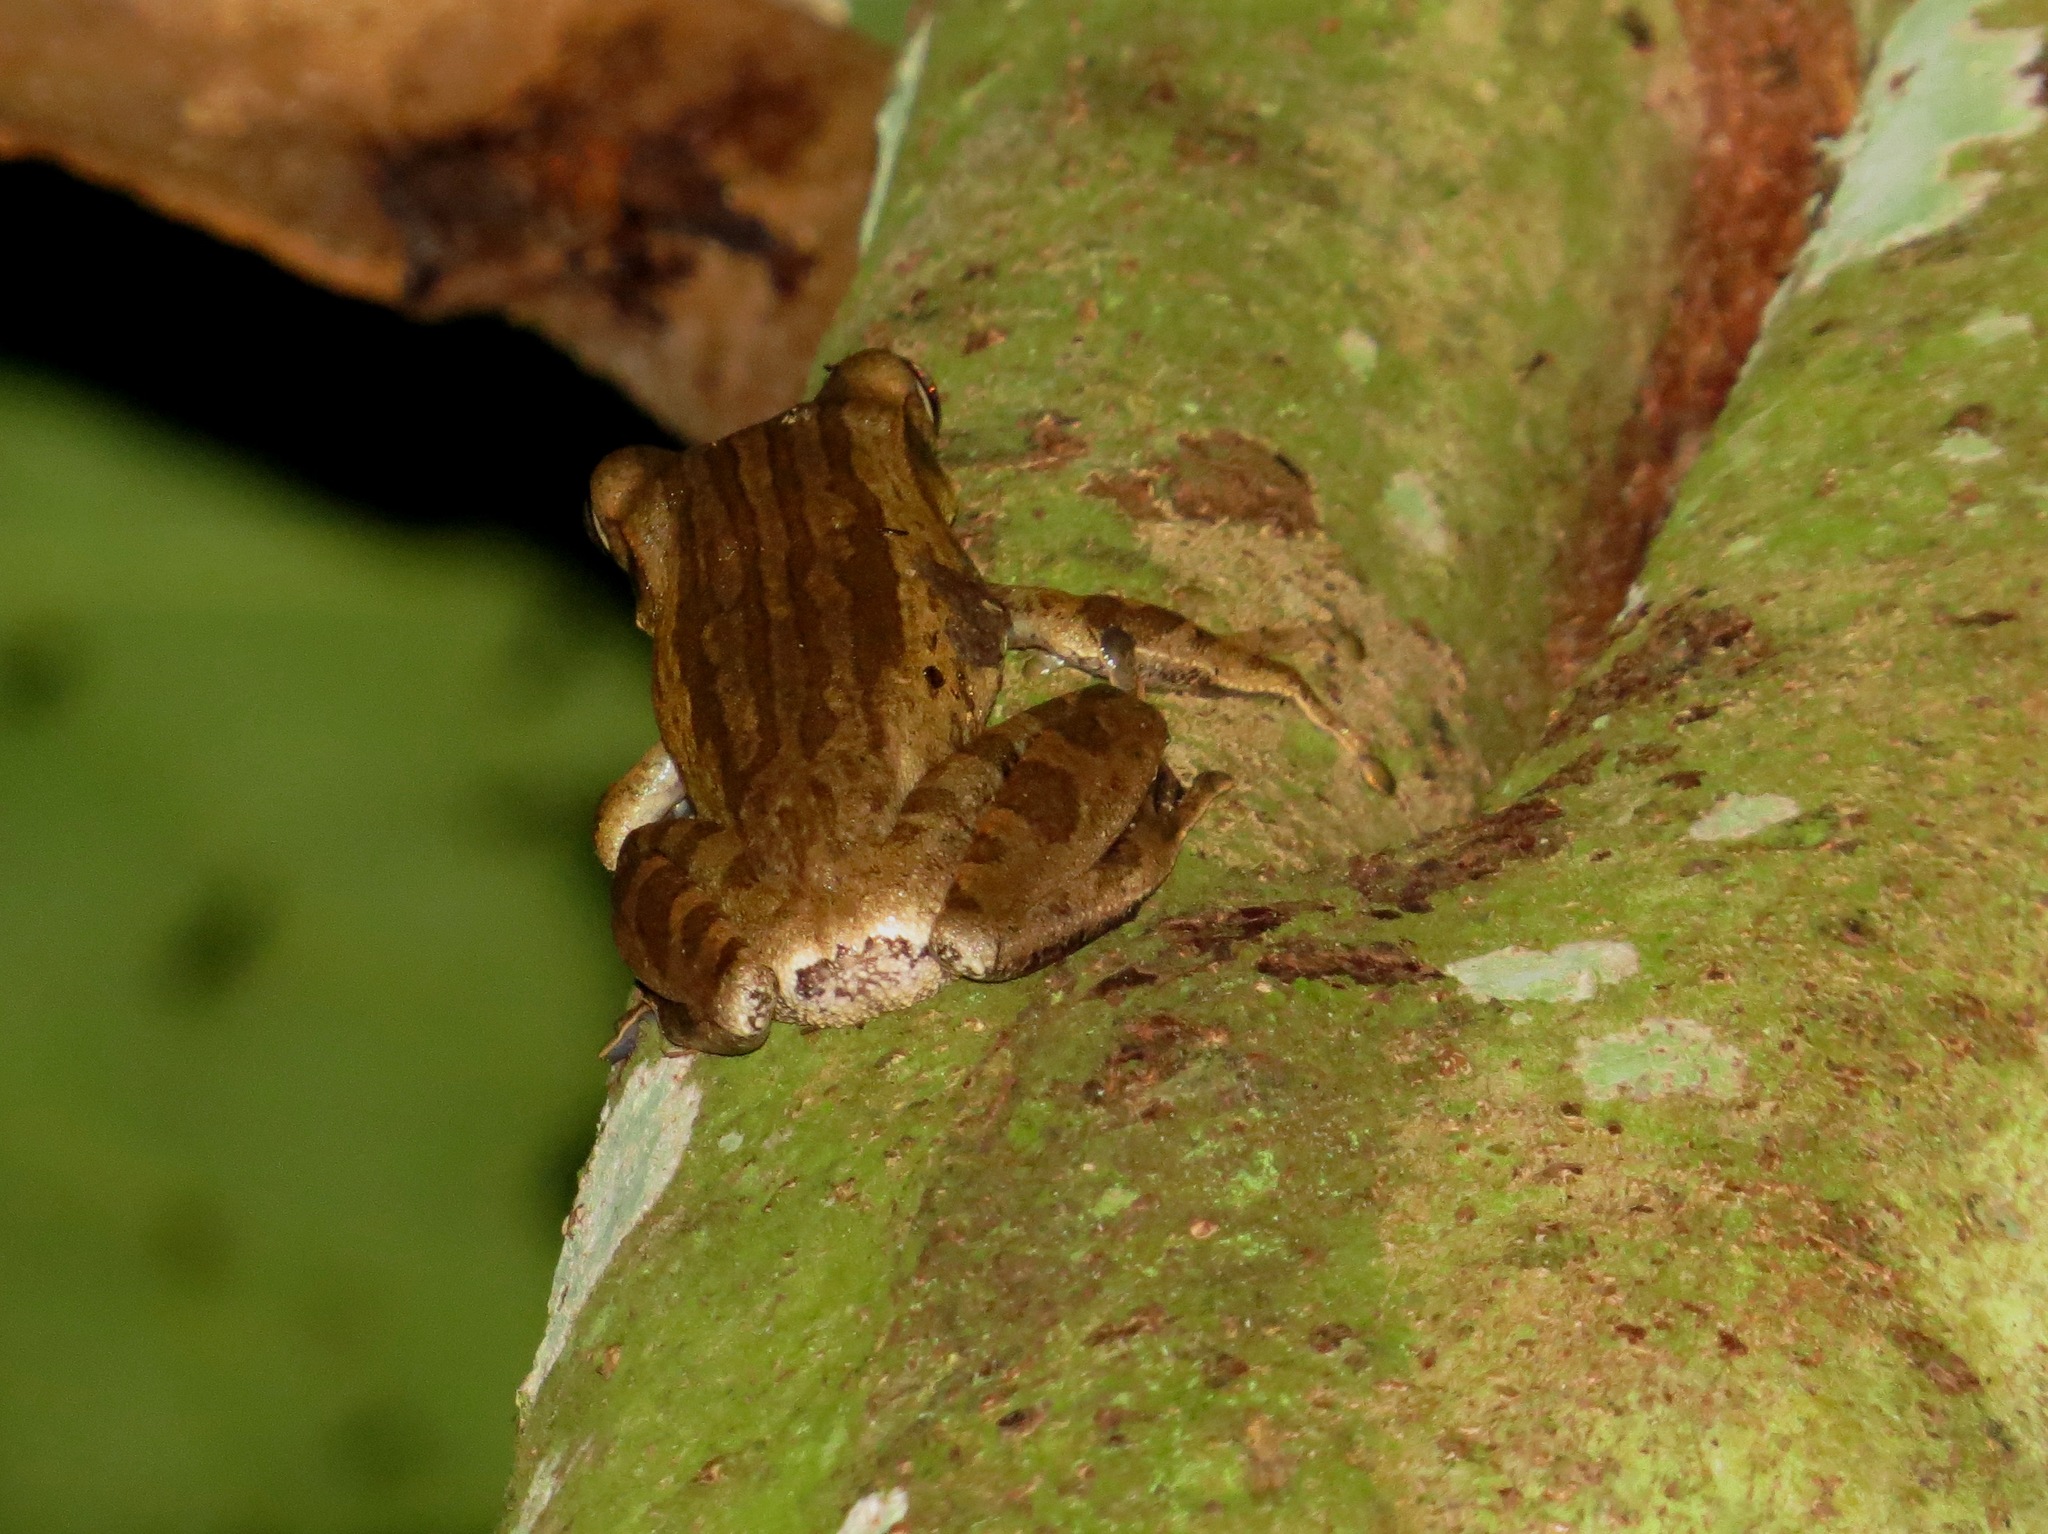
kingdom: Animalia
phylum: Chordata
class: Amphibia
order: Anura
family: Rhacophoridae
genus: Polypedates
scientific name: Polypedates leucomystax
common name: Common tree frog/four-lined tree frog
